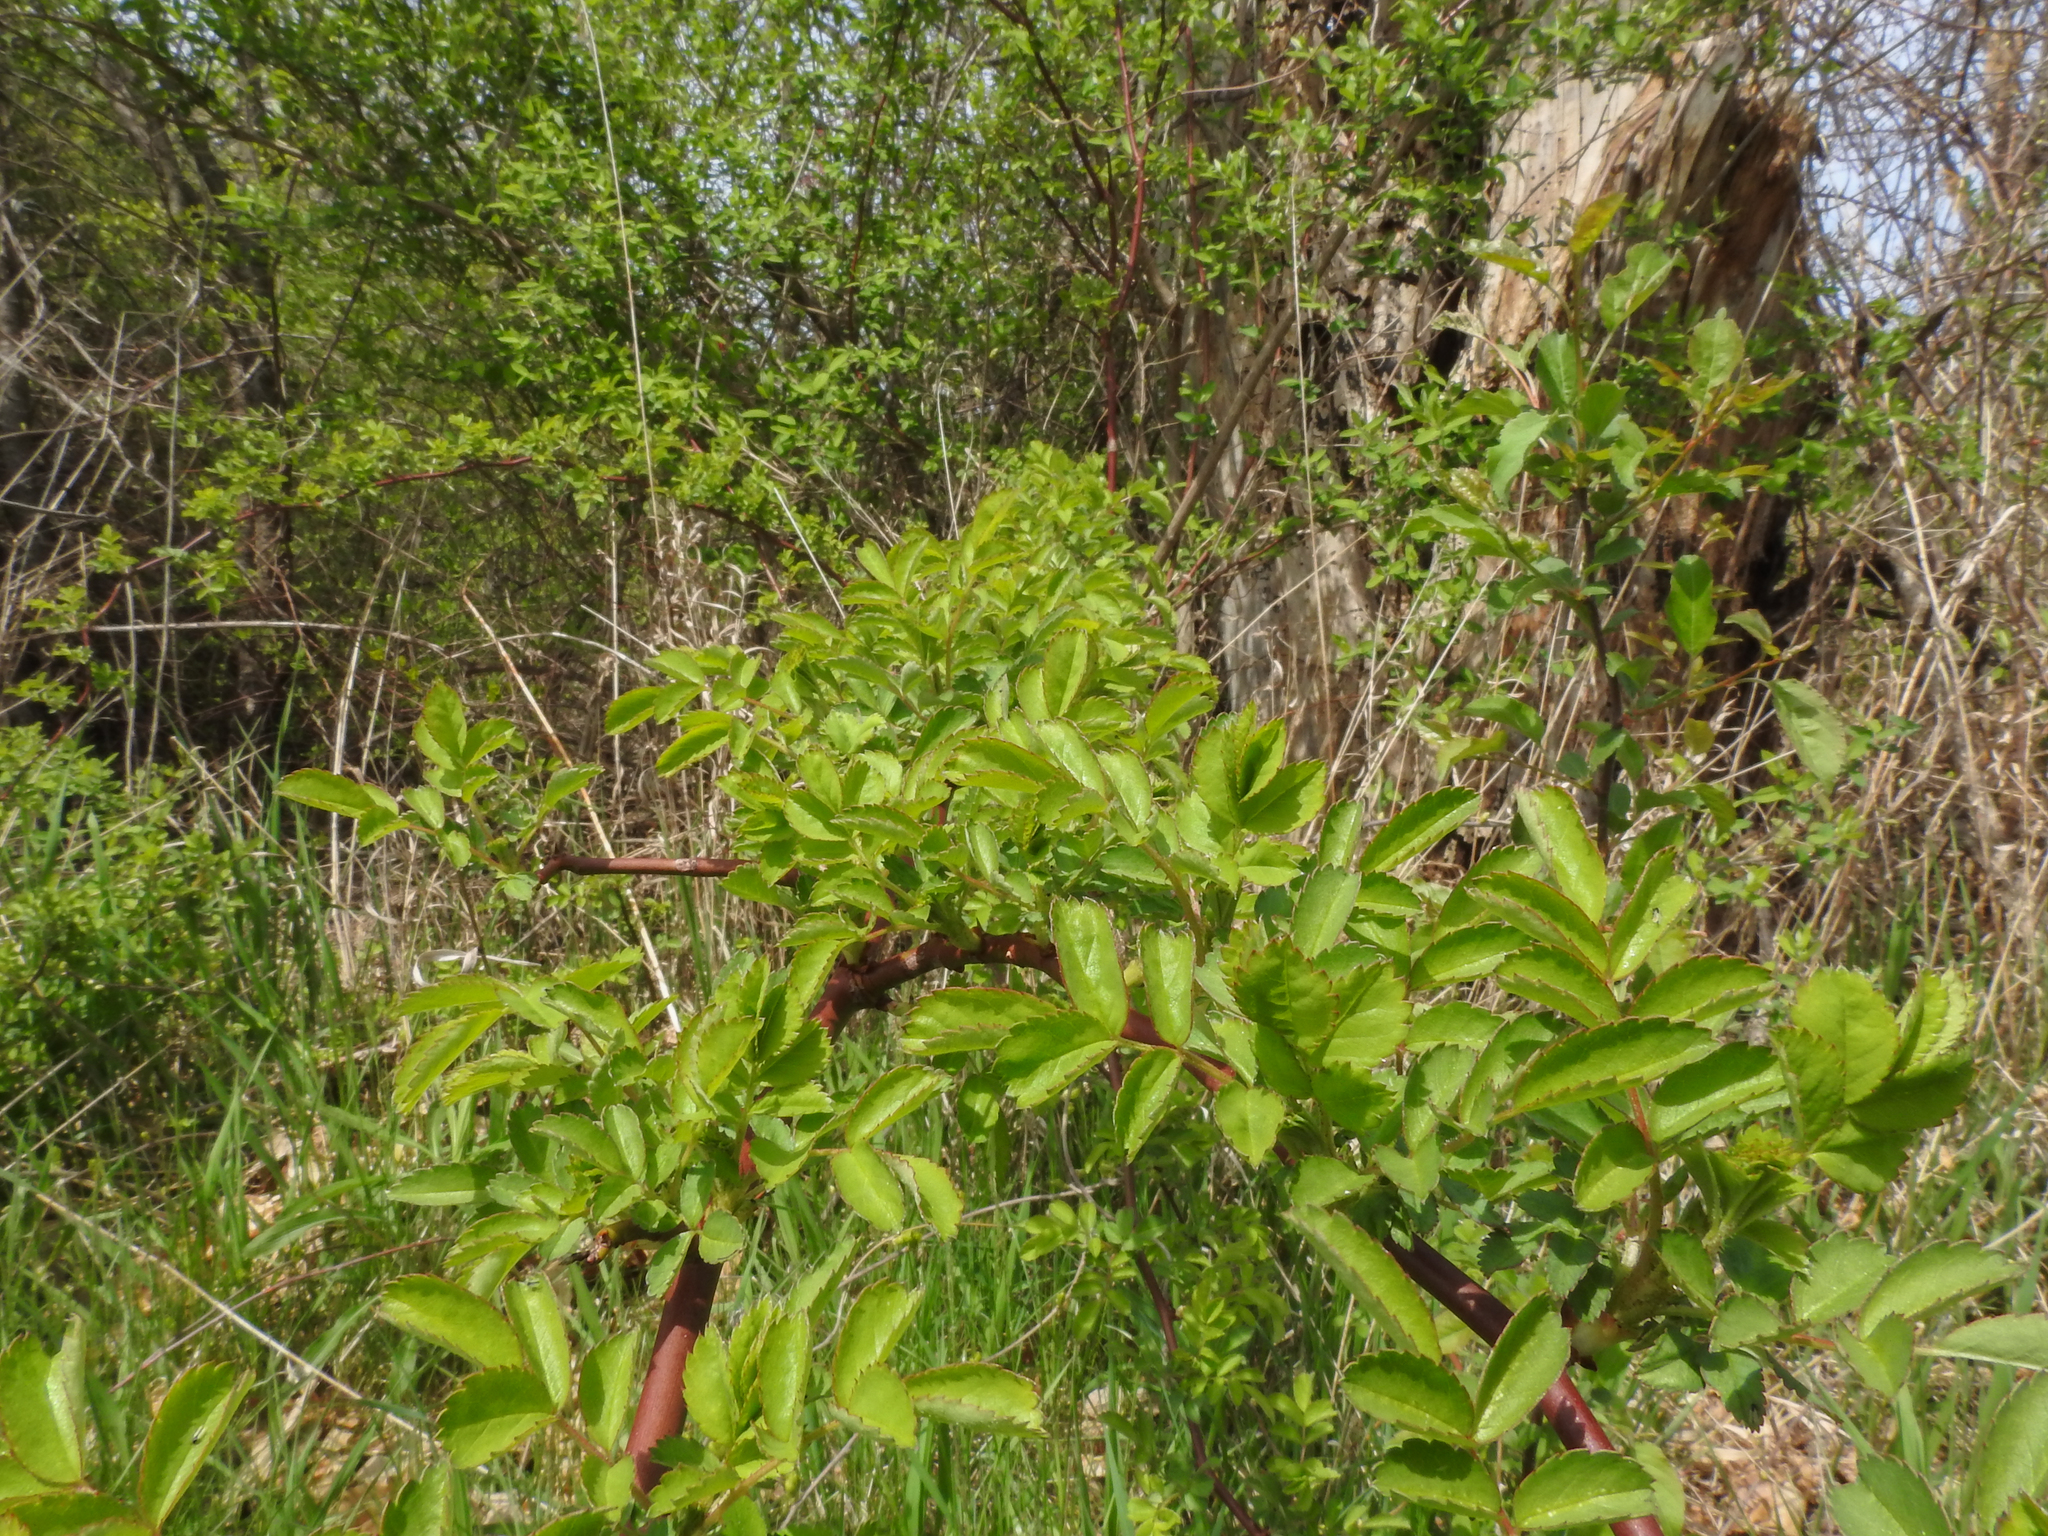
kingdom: Plantae
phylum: Tracheophyta
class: Magnoliopsida
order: Rosales
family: Rosaceae
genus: Rosa
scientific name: Rosa multiflora
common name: Multiflora rose
